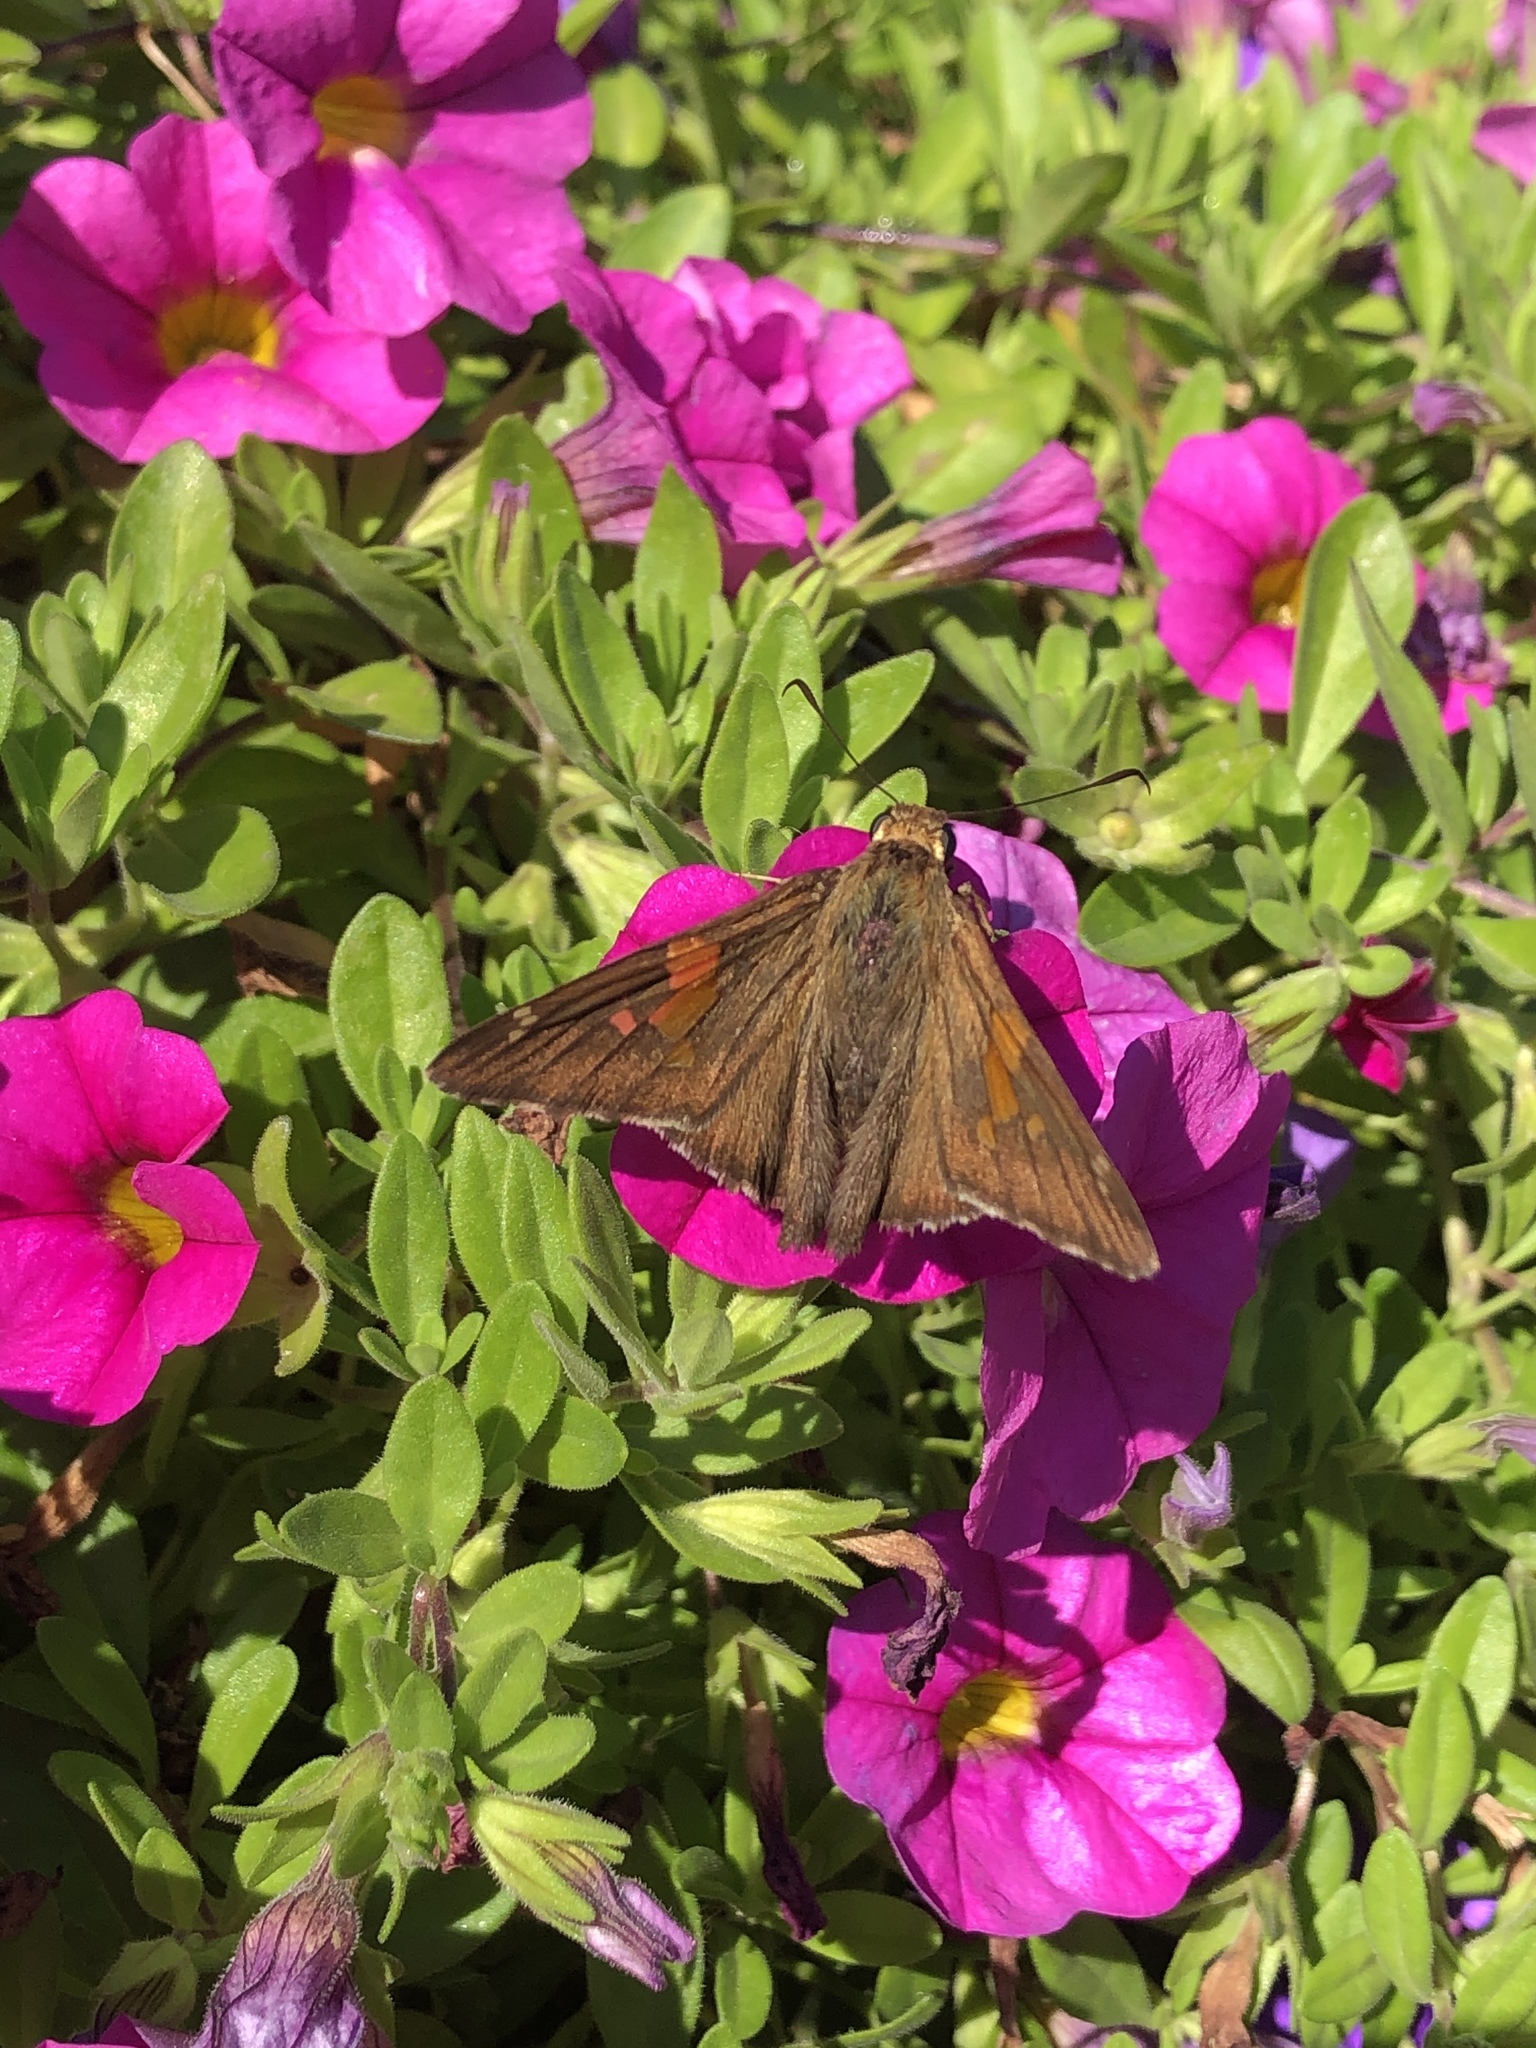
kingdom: Animalia
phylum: Arthropoda
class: Insecta
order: Lepidoptera
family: Hesperiidae
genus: Epargyreus
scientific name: Epargyreus clarus
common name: Silver-spotted skipper
